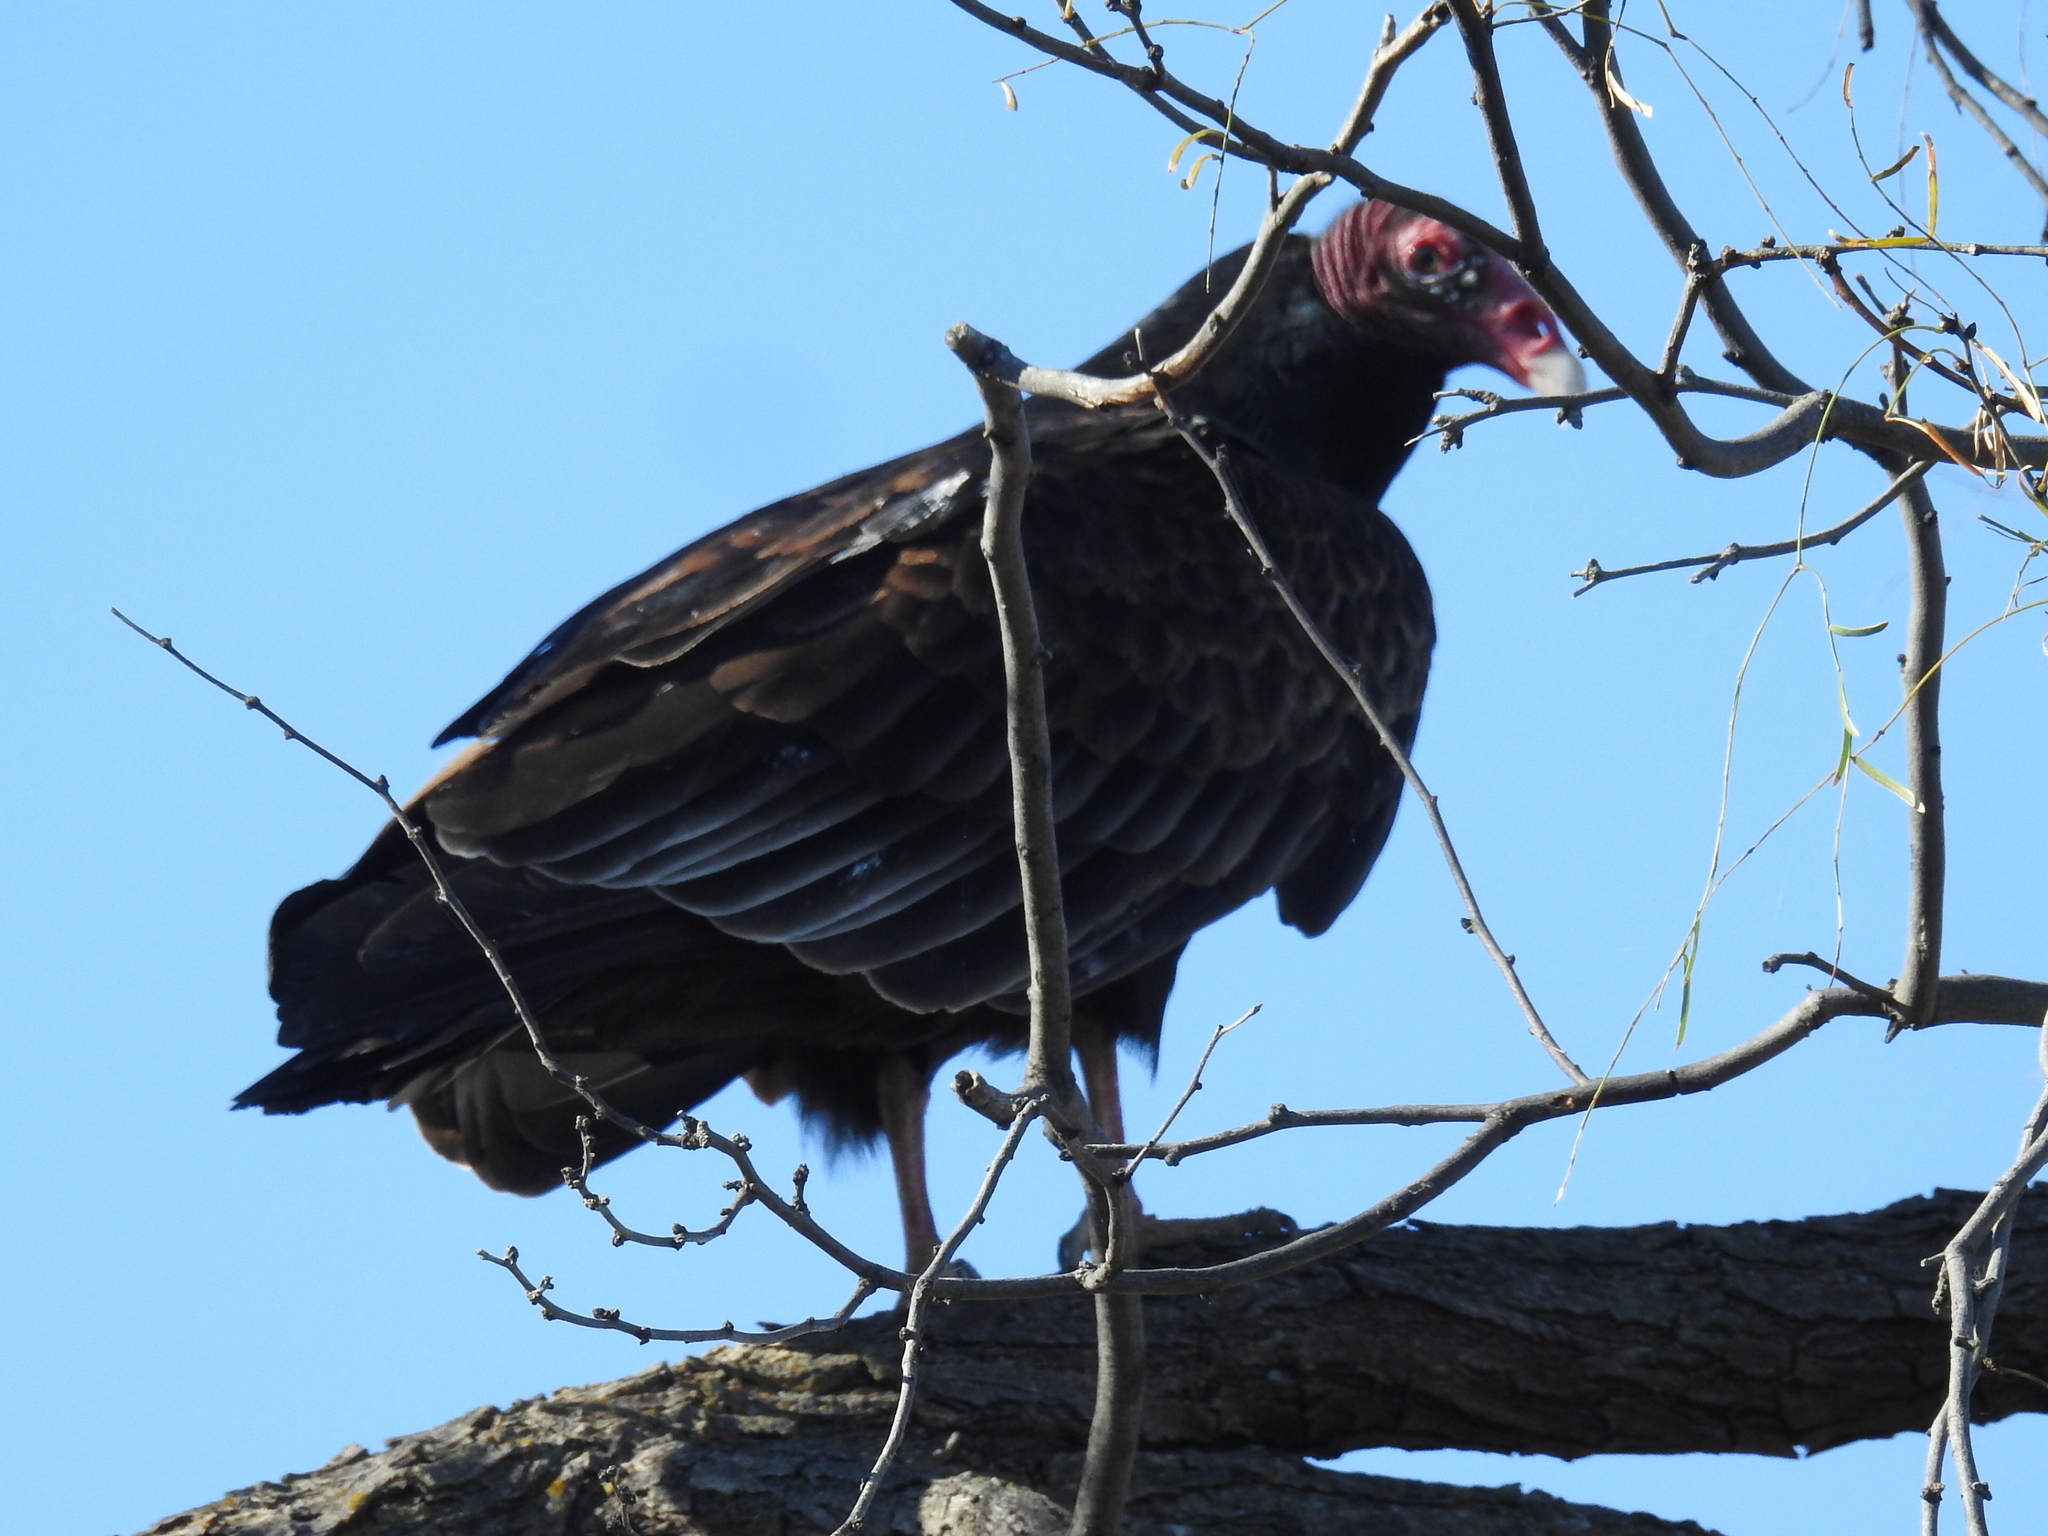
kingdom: Animalia
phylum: Chordata
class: Aves
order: Accipitriformes
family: Cathartidae
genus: Cathartes
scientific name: Cathartes aura
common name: Turkey vulture
